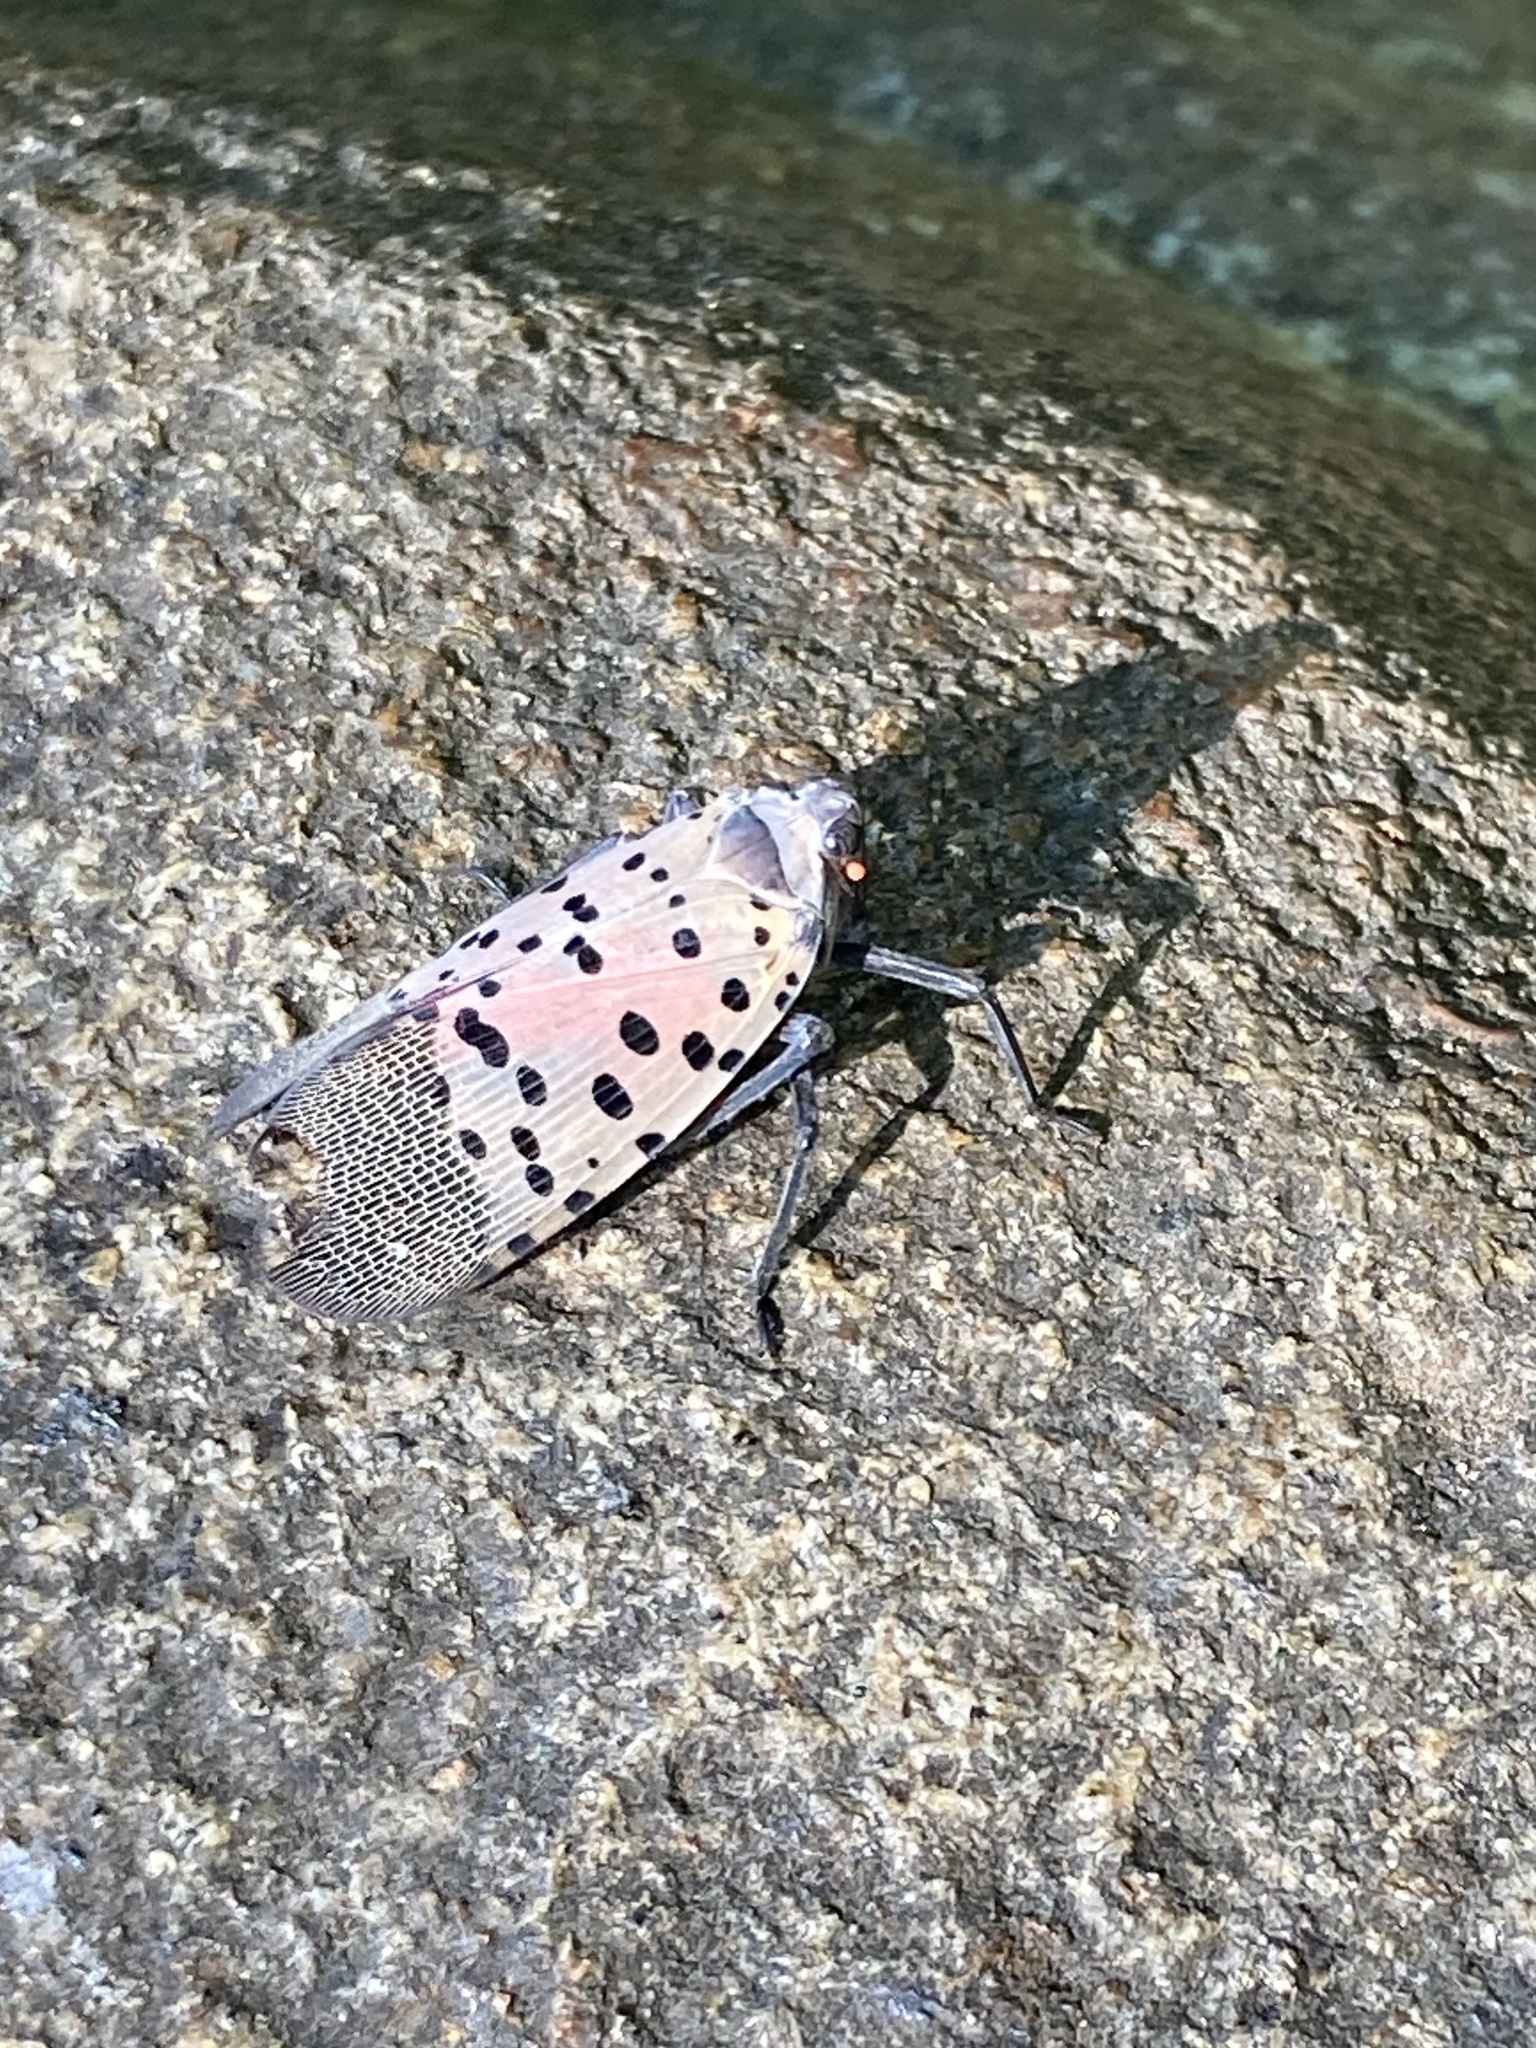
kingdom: Animalia
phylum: Arthropoda
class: Insecta
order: Hemiptera
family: Fulgoridae
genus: Lycorma
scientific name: Lycorma delicatula
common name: Spotted lanternfly
